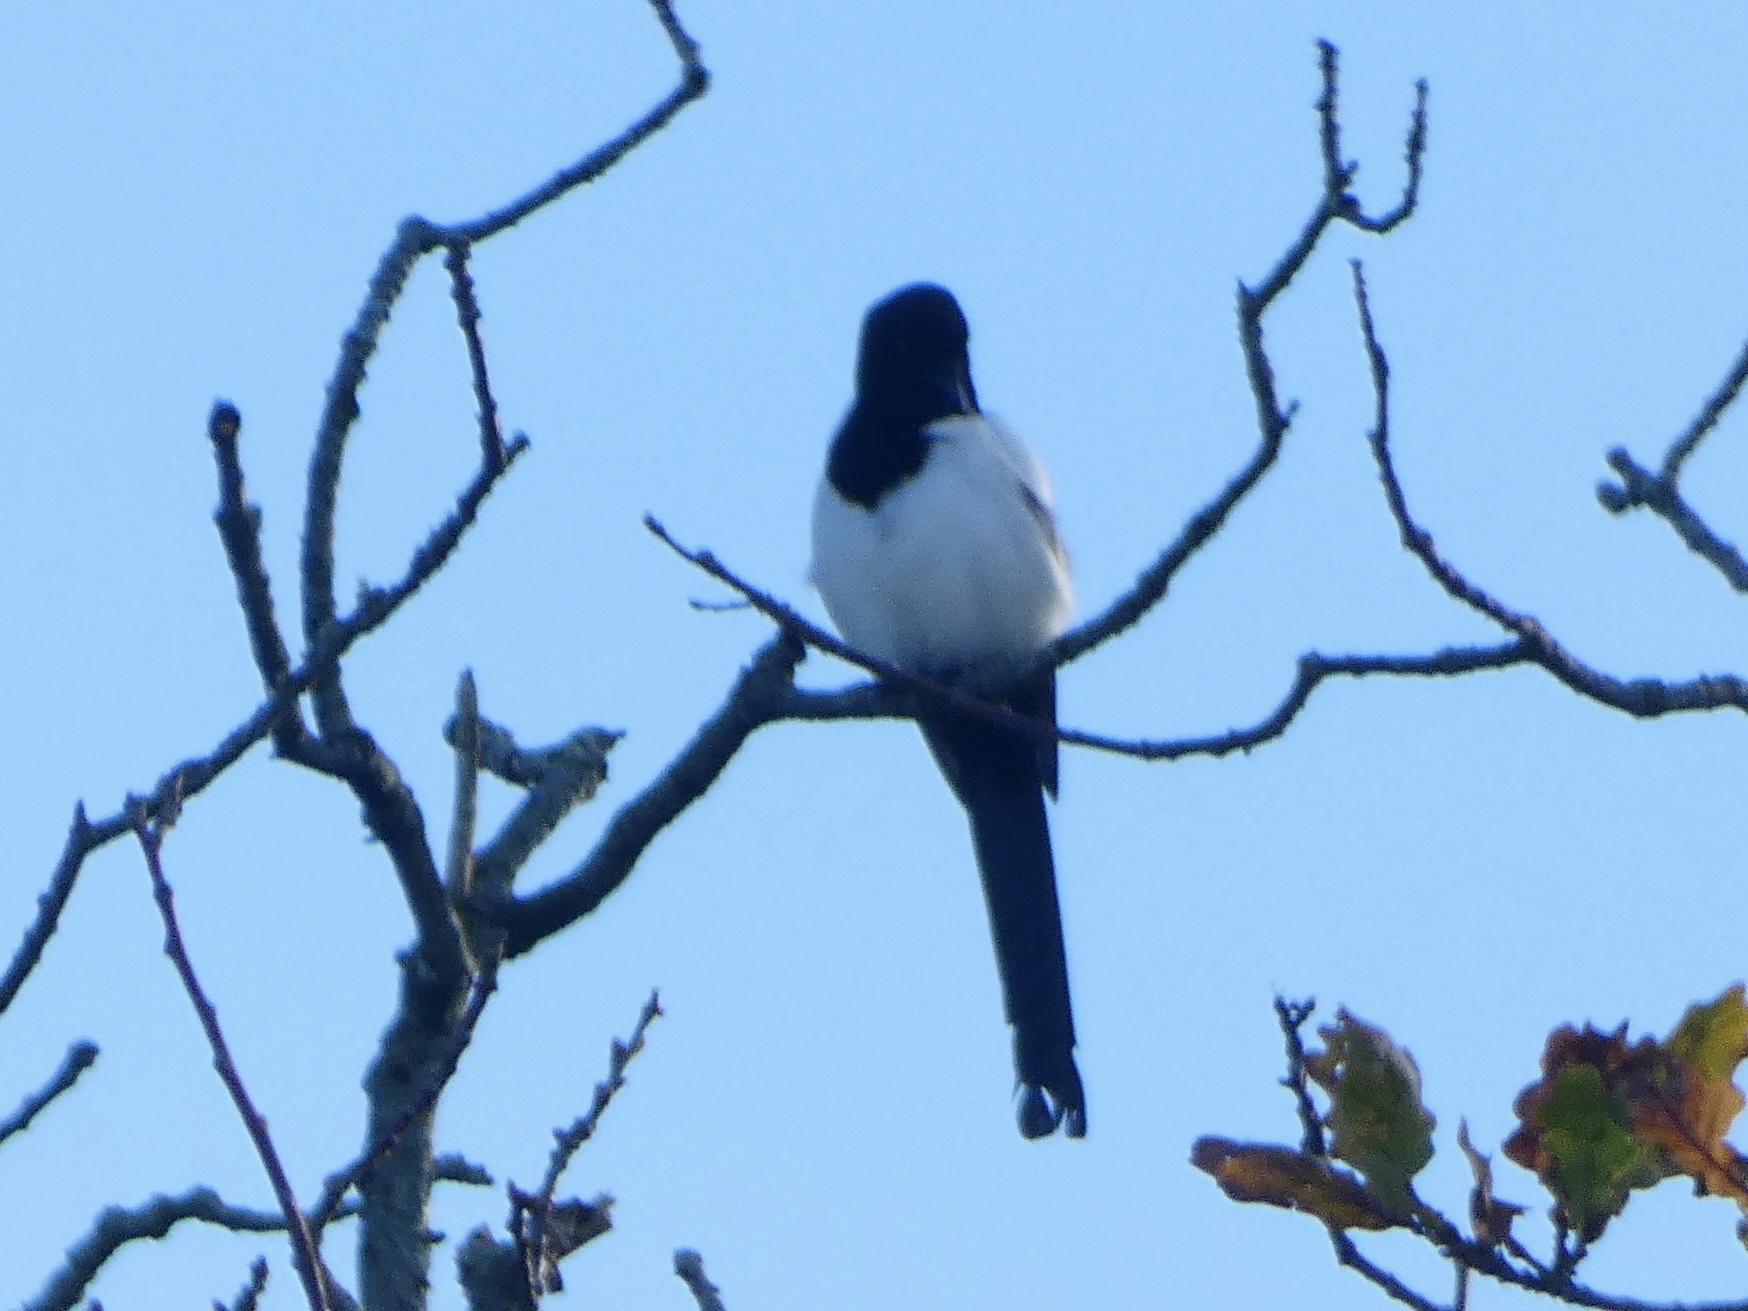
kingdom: Animalia
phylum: Chordata
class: Aves
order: Passeriformes
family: Corvidae
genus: Pica
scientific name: Pica pica
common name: Eurasian magpie
